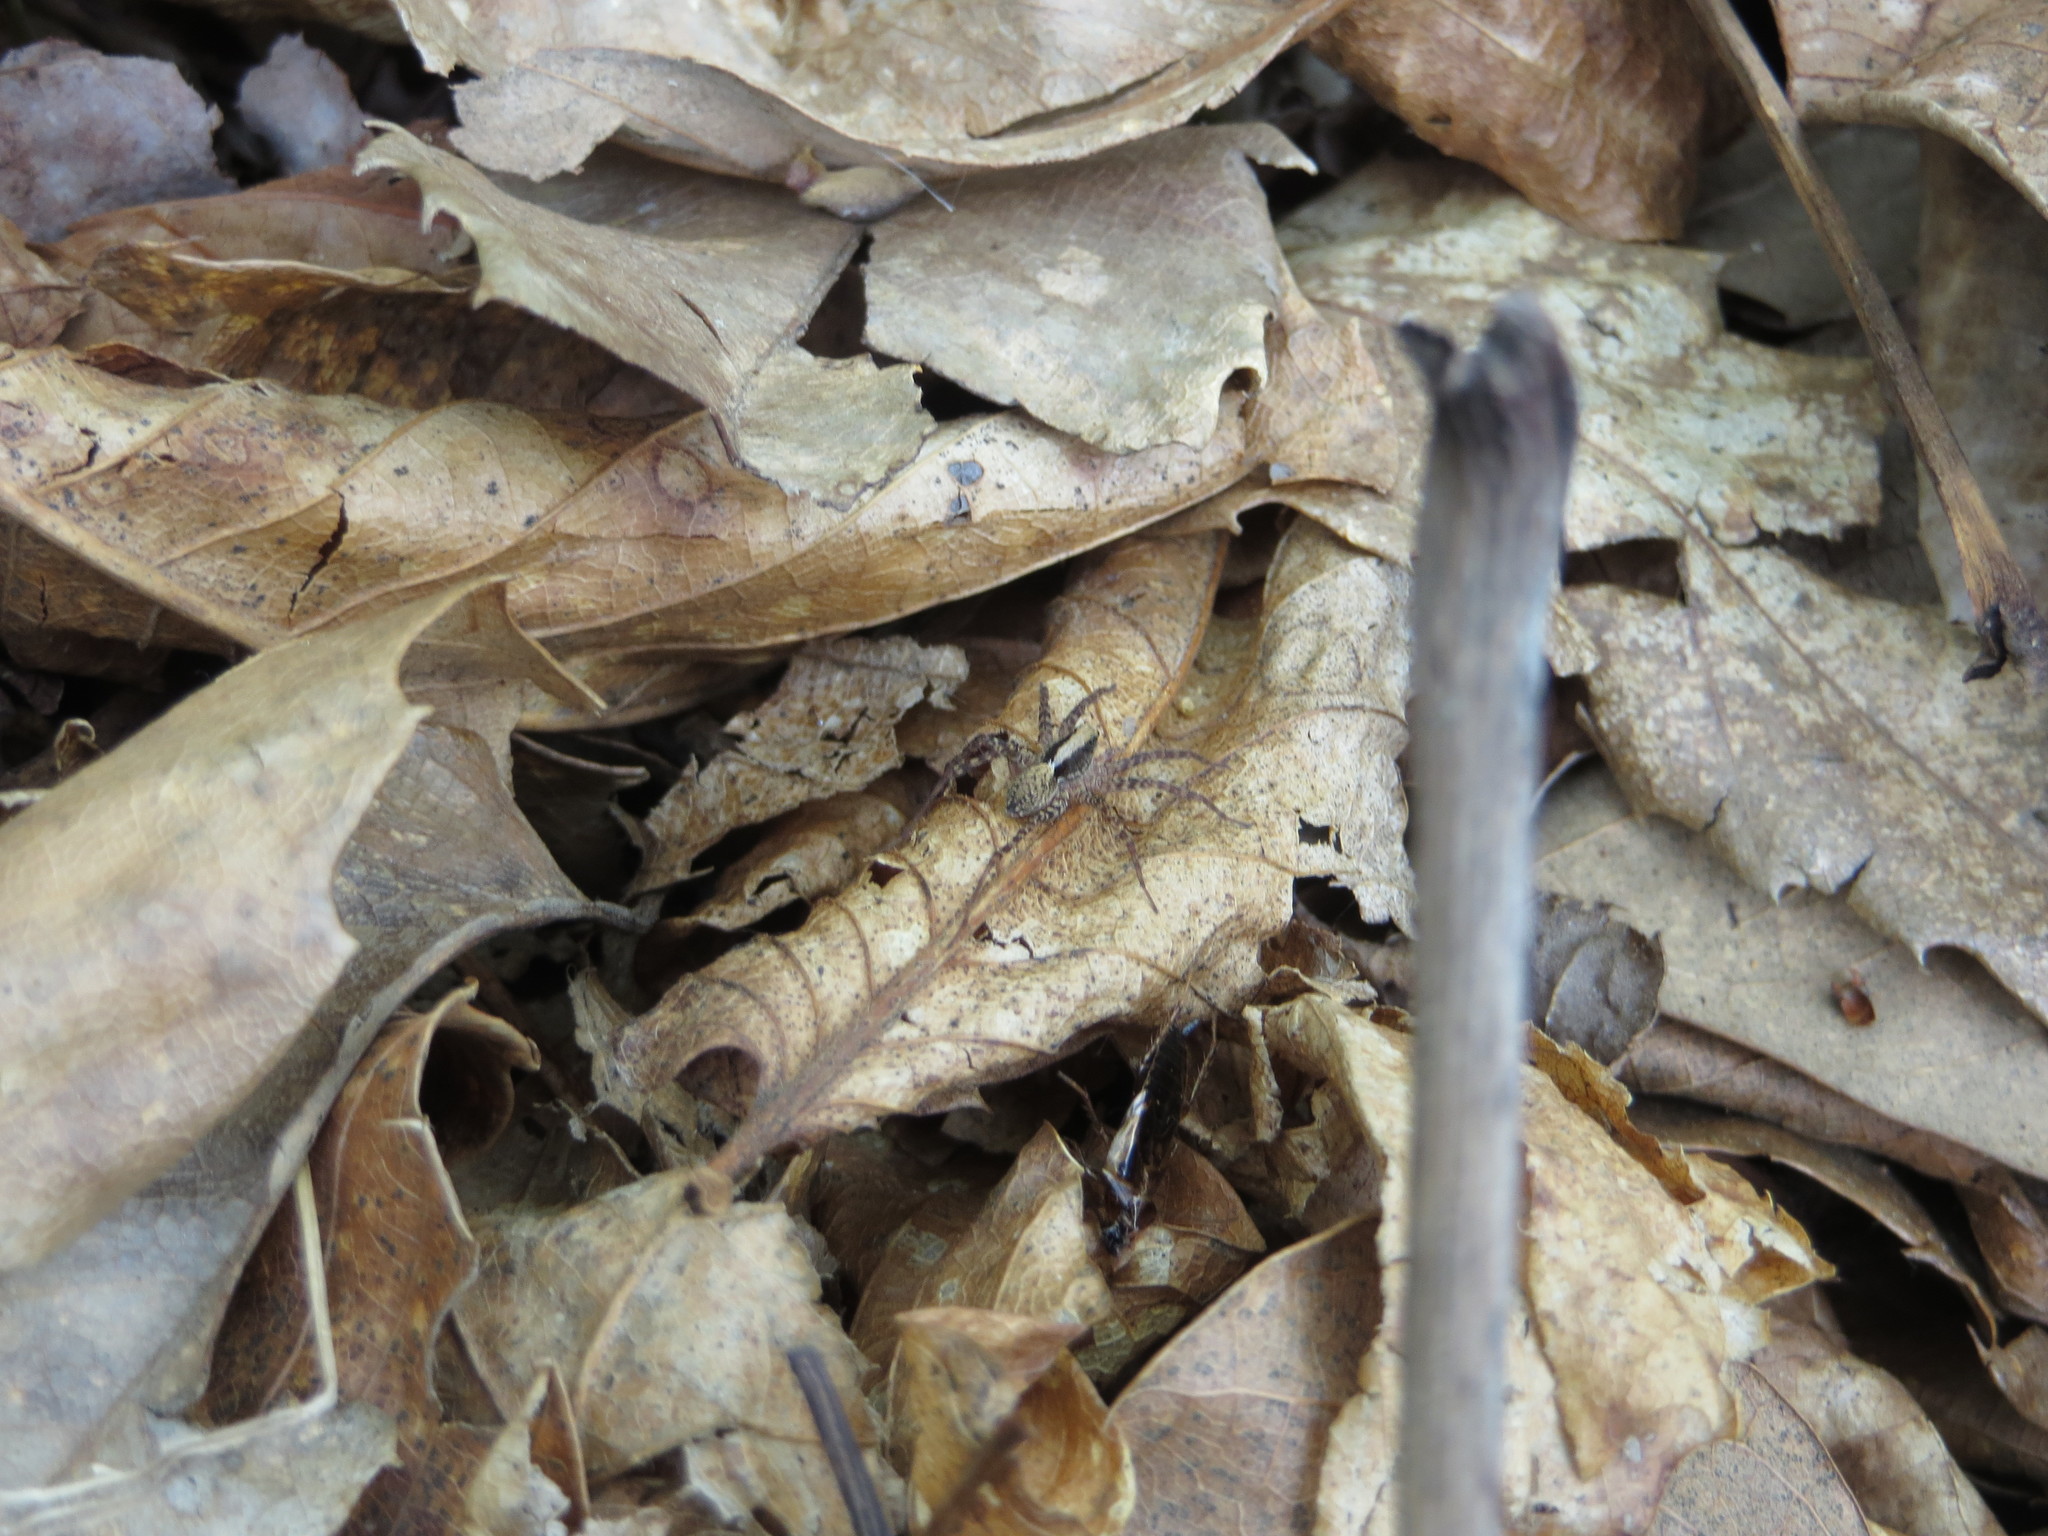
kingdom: Animalia
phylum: Arthropoda
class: Arachnida
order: Araneae
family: Lycosidae
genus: Pardosa
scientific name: Pardosa
